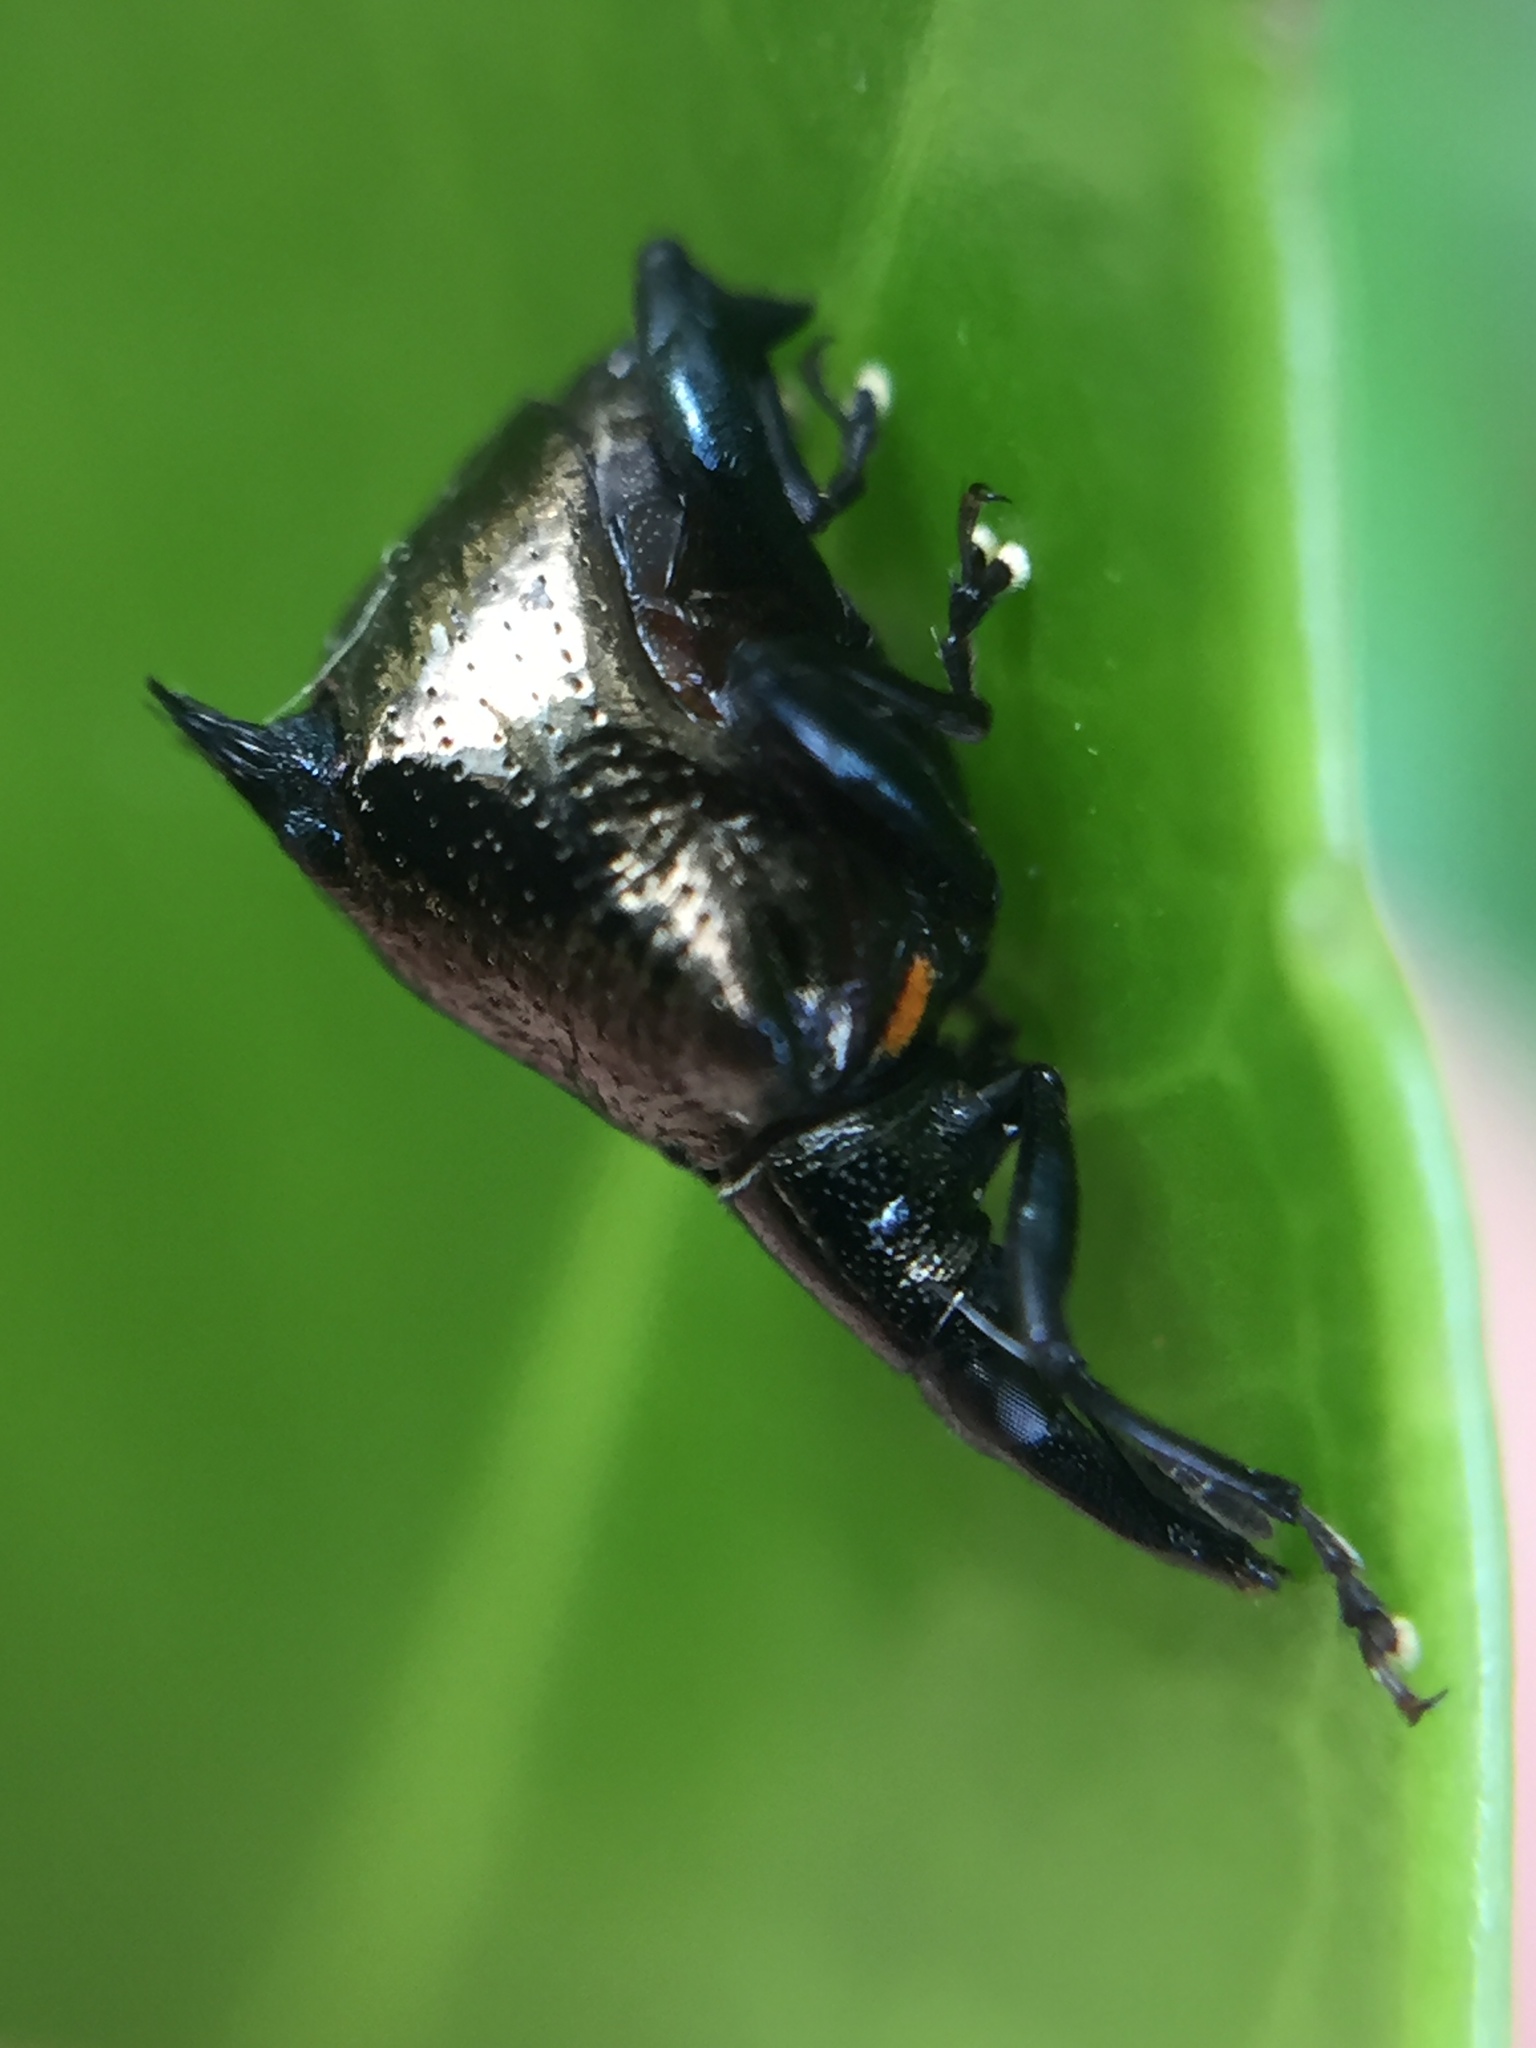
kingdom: Animalia
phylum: Arthropoda
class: Insecta
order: Coleoptera
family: Curculionidae
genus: Scolopterus
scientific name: Scolopterus penicillatus
